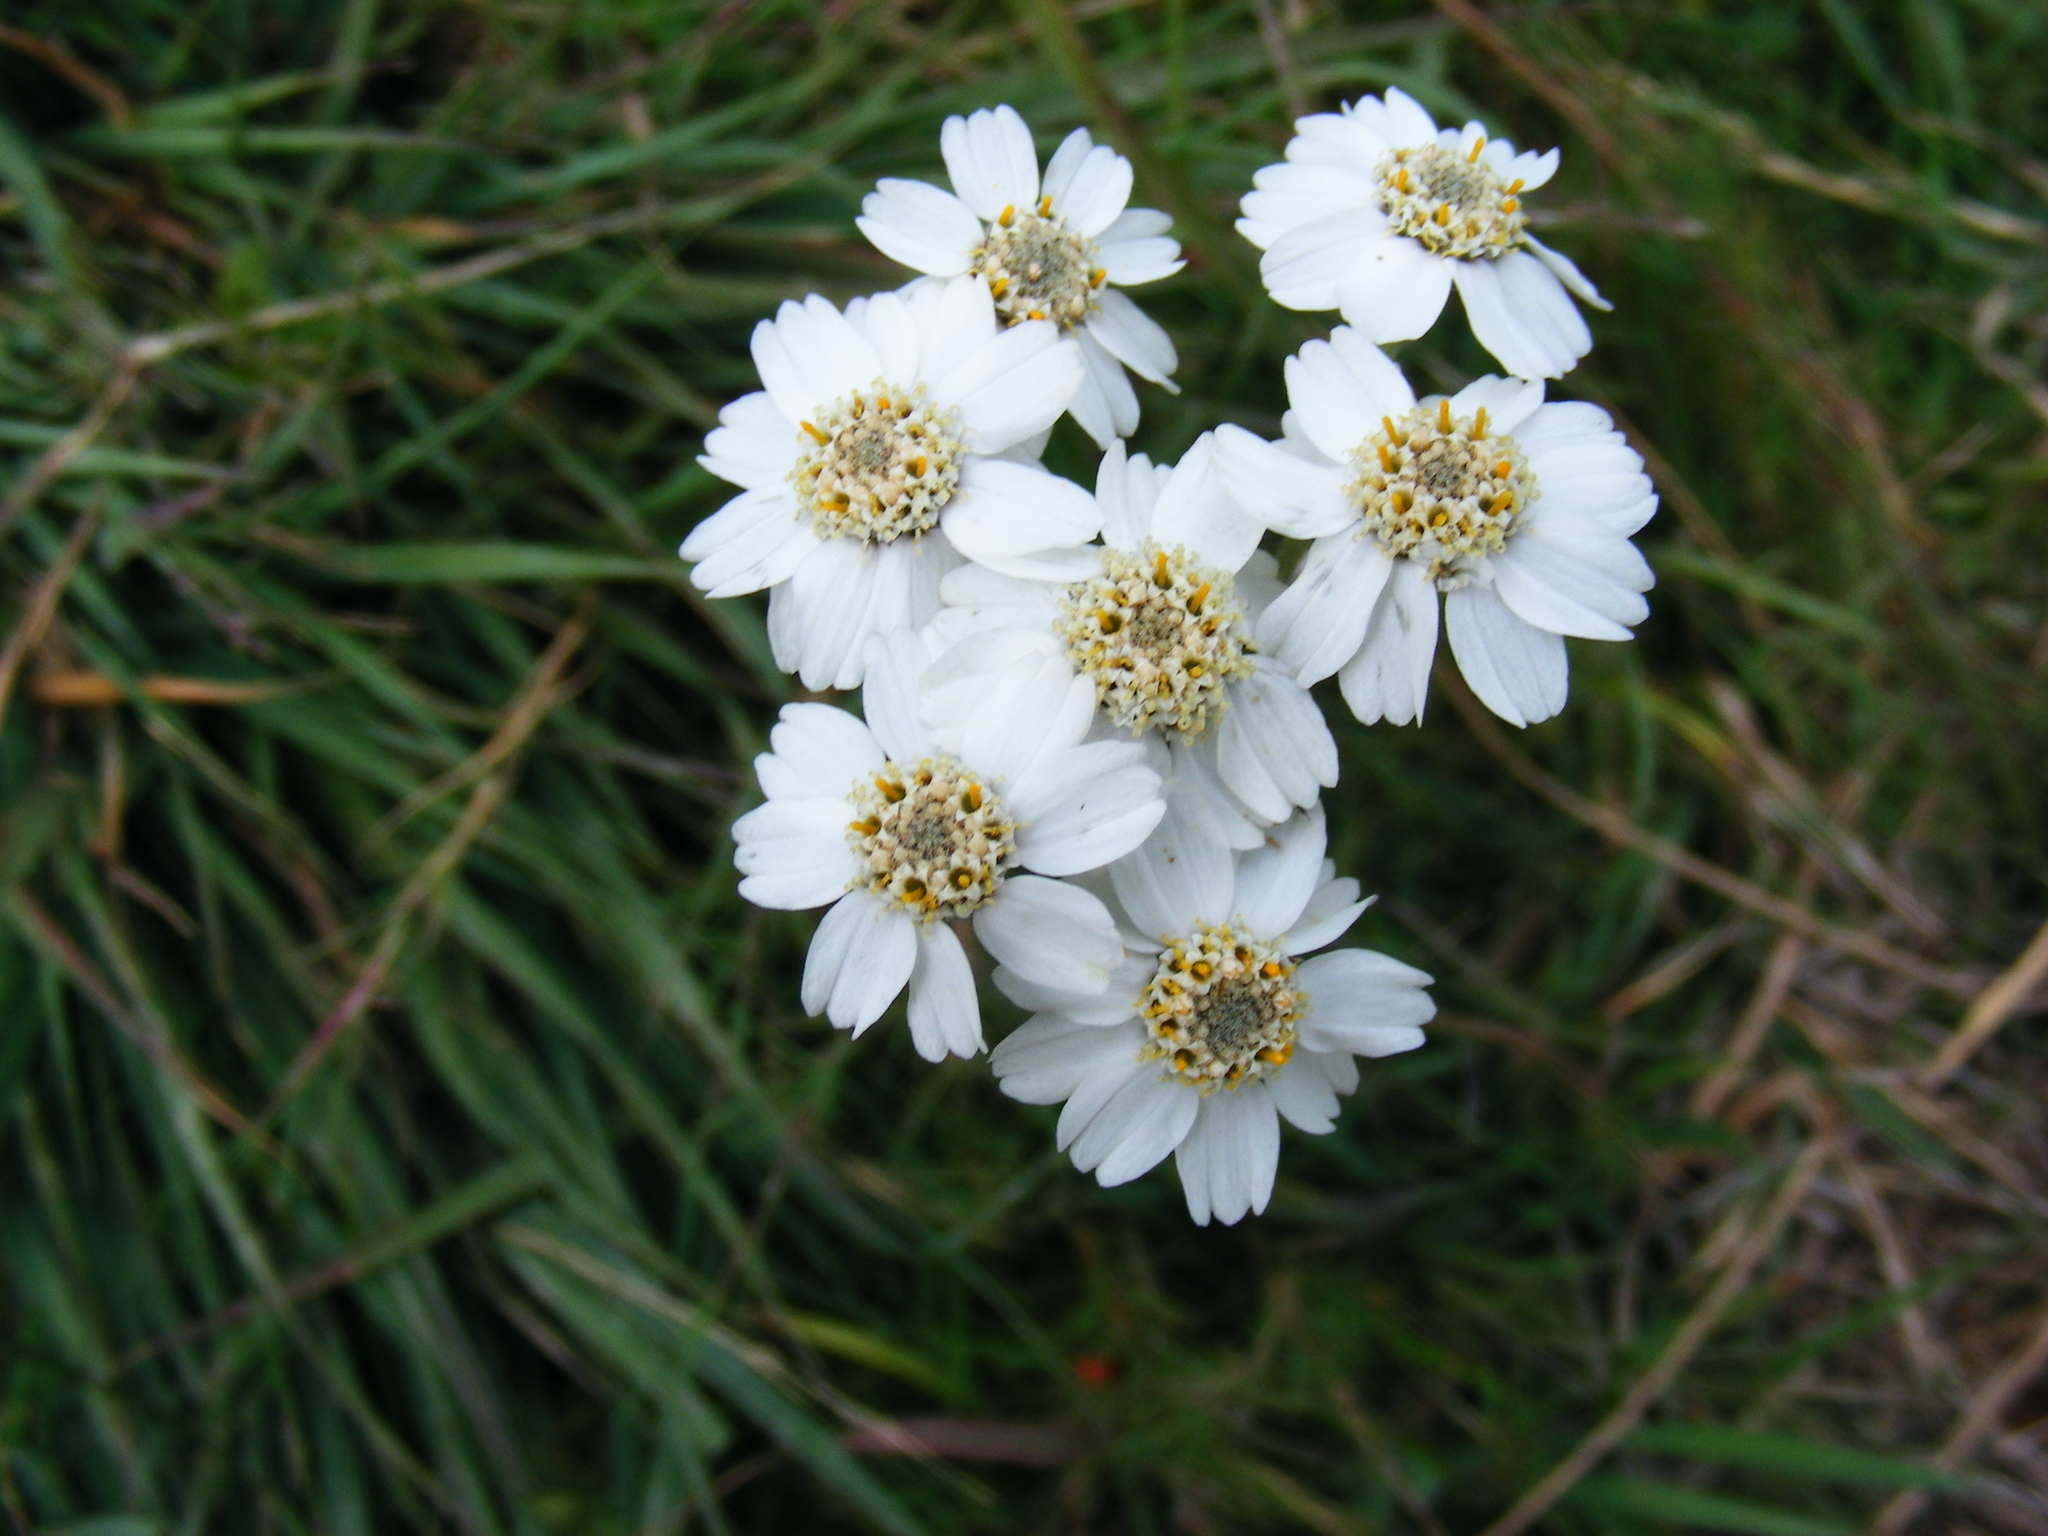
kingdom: Plantae
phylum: Tracheophyta
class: Magnoliopsida
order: Asterales
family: Asteraceae
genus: Achillea
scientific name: Achillea ptarmica
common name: Sneezeweed
